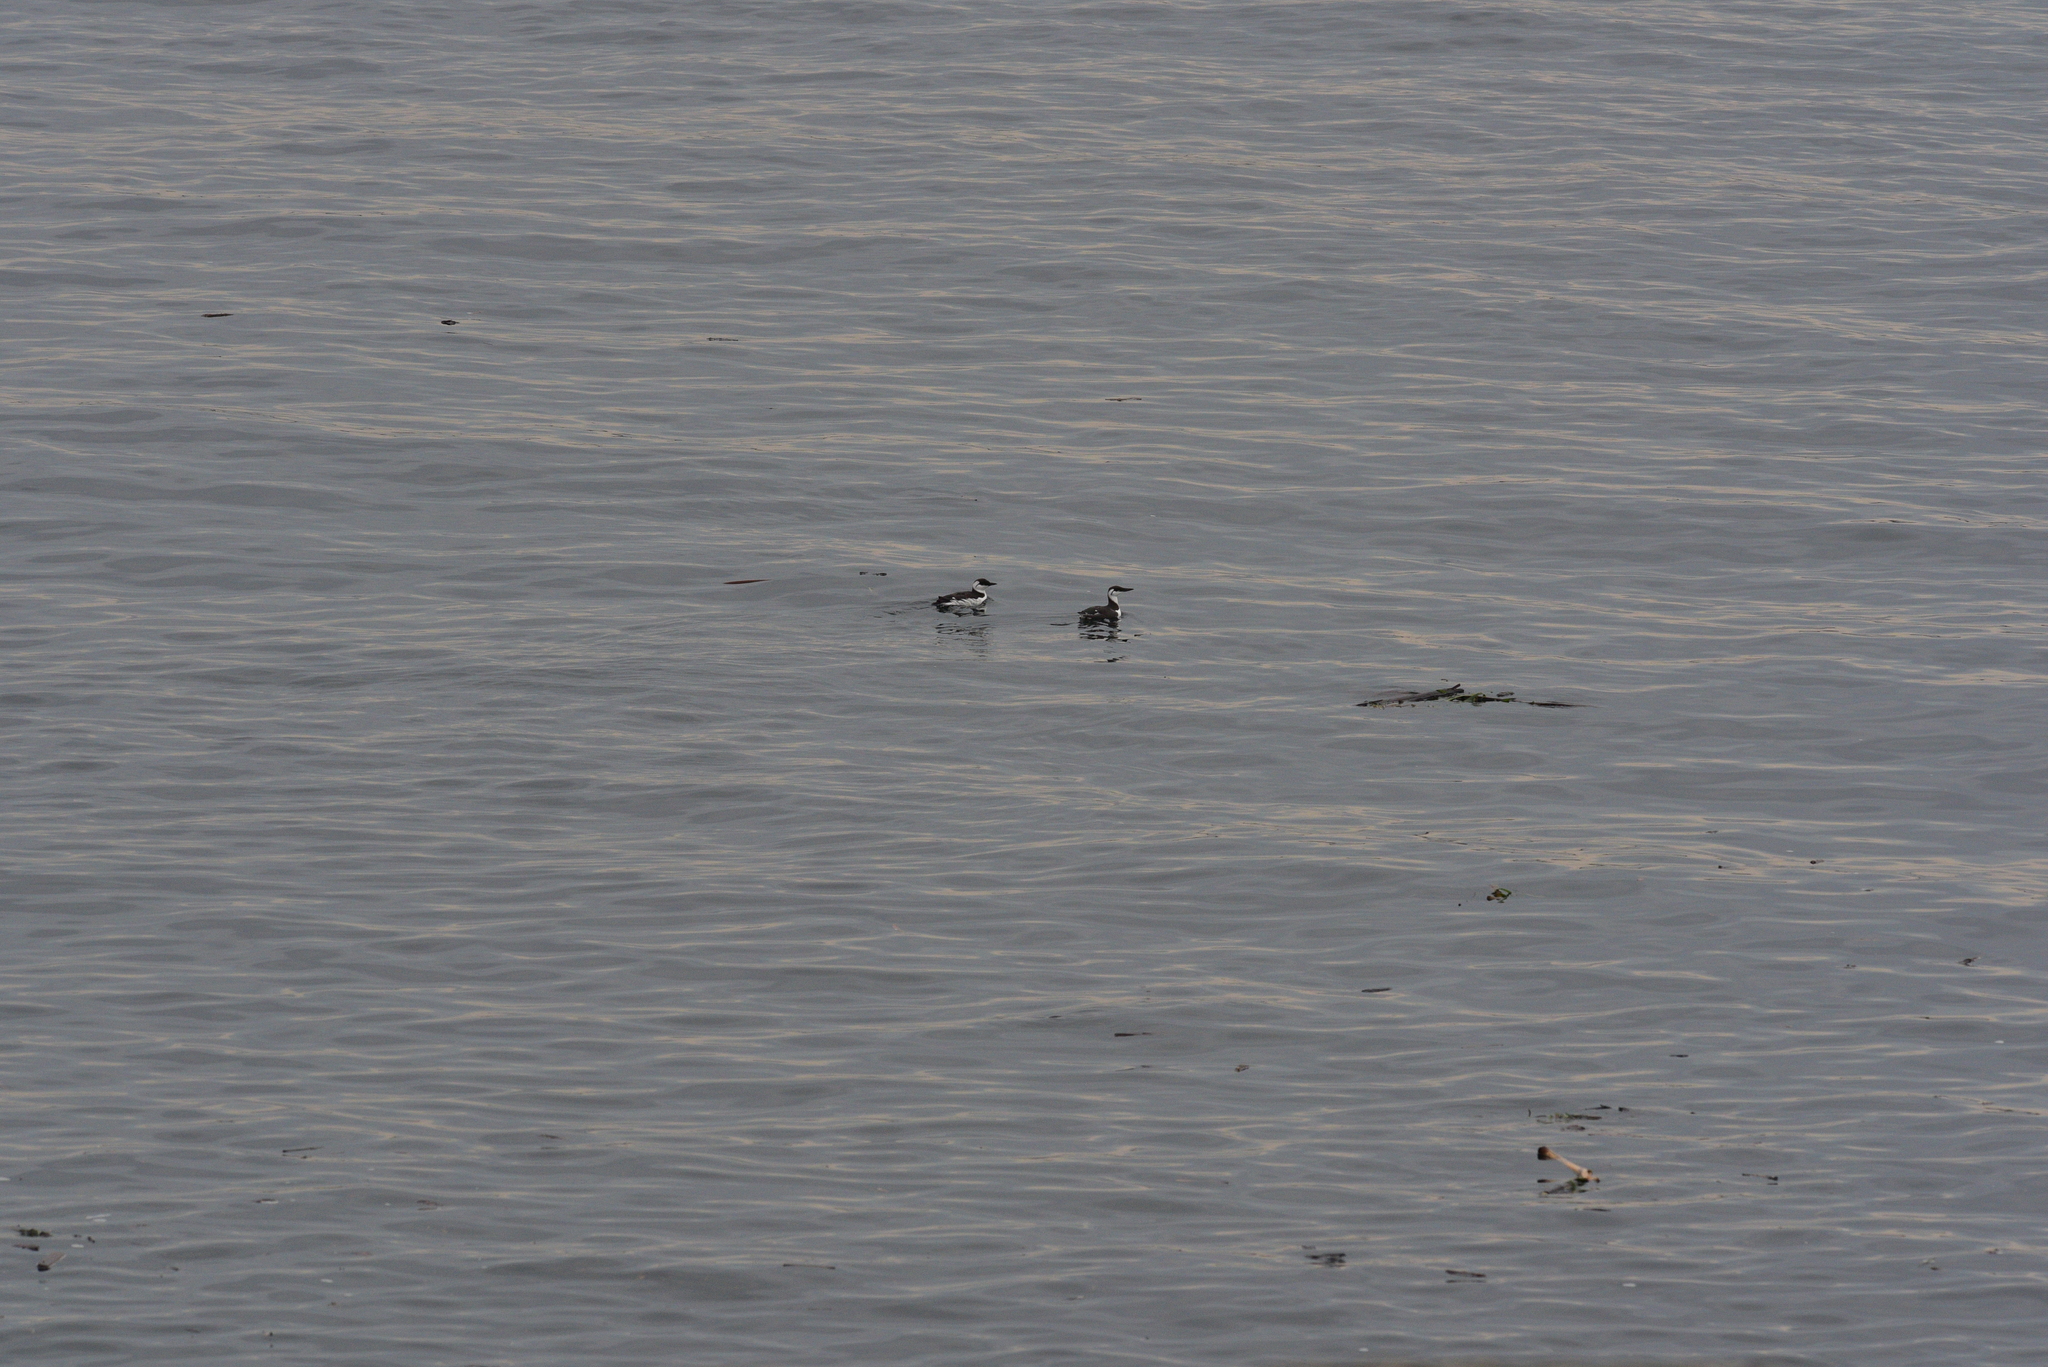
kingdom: Animalia
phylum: Chordata
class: Aves
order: Charadriiformes
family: Alcidae
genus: Uria
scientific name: Uria aalge
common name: Common murre
